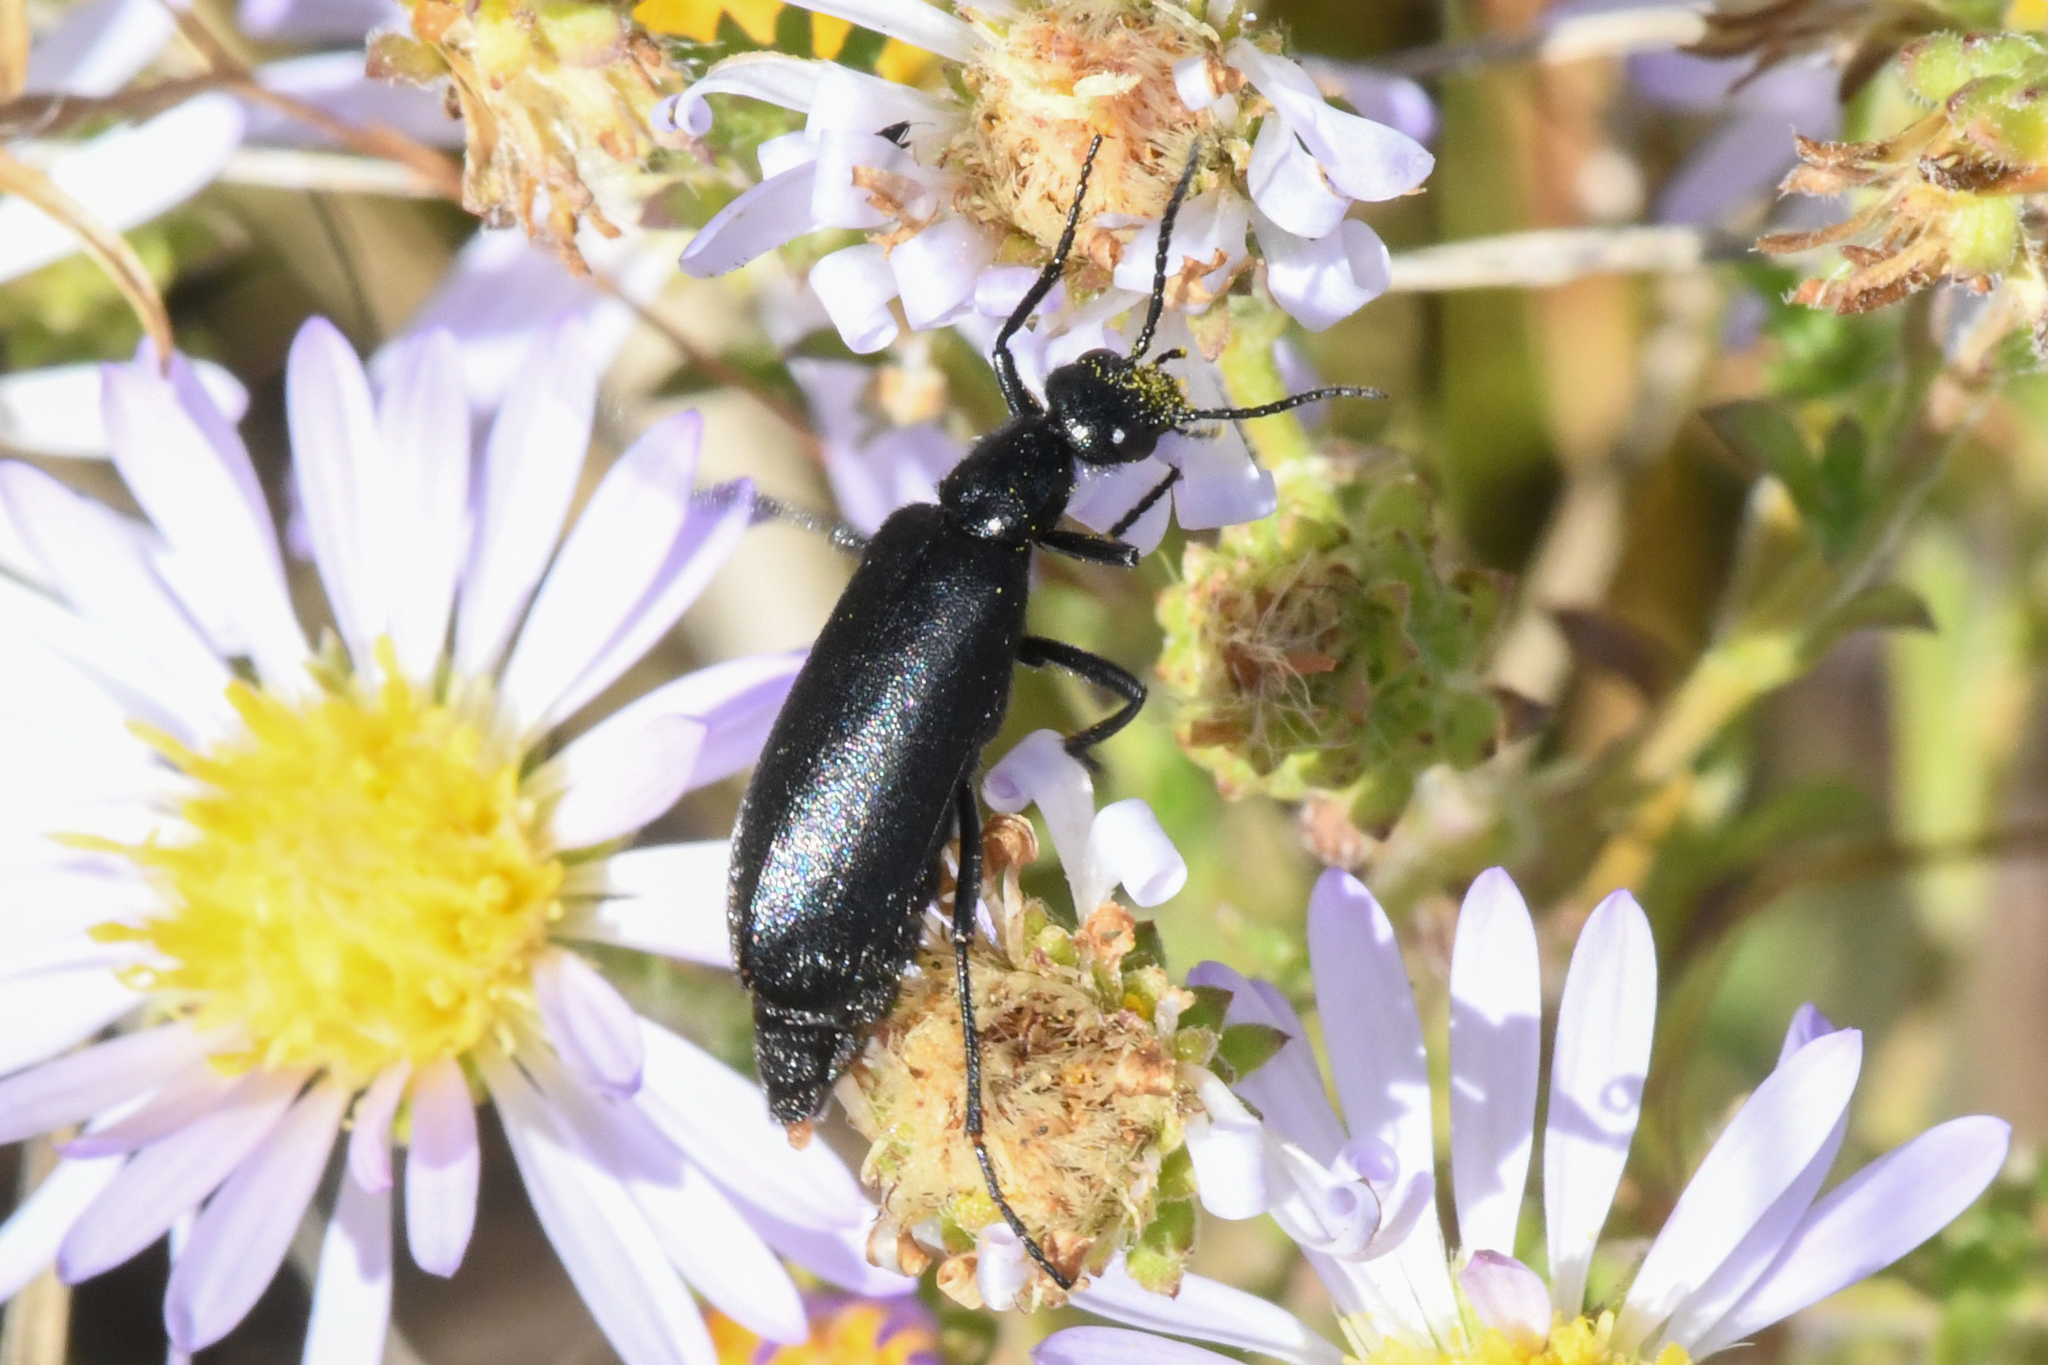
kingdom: Animalia
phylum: Arthropoda
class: Insecta
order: Coleoptera
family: Meloidae
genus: Epicauta
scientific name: Epicauta puncticollis
